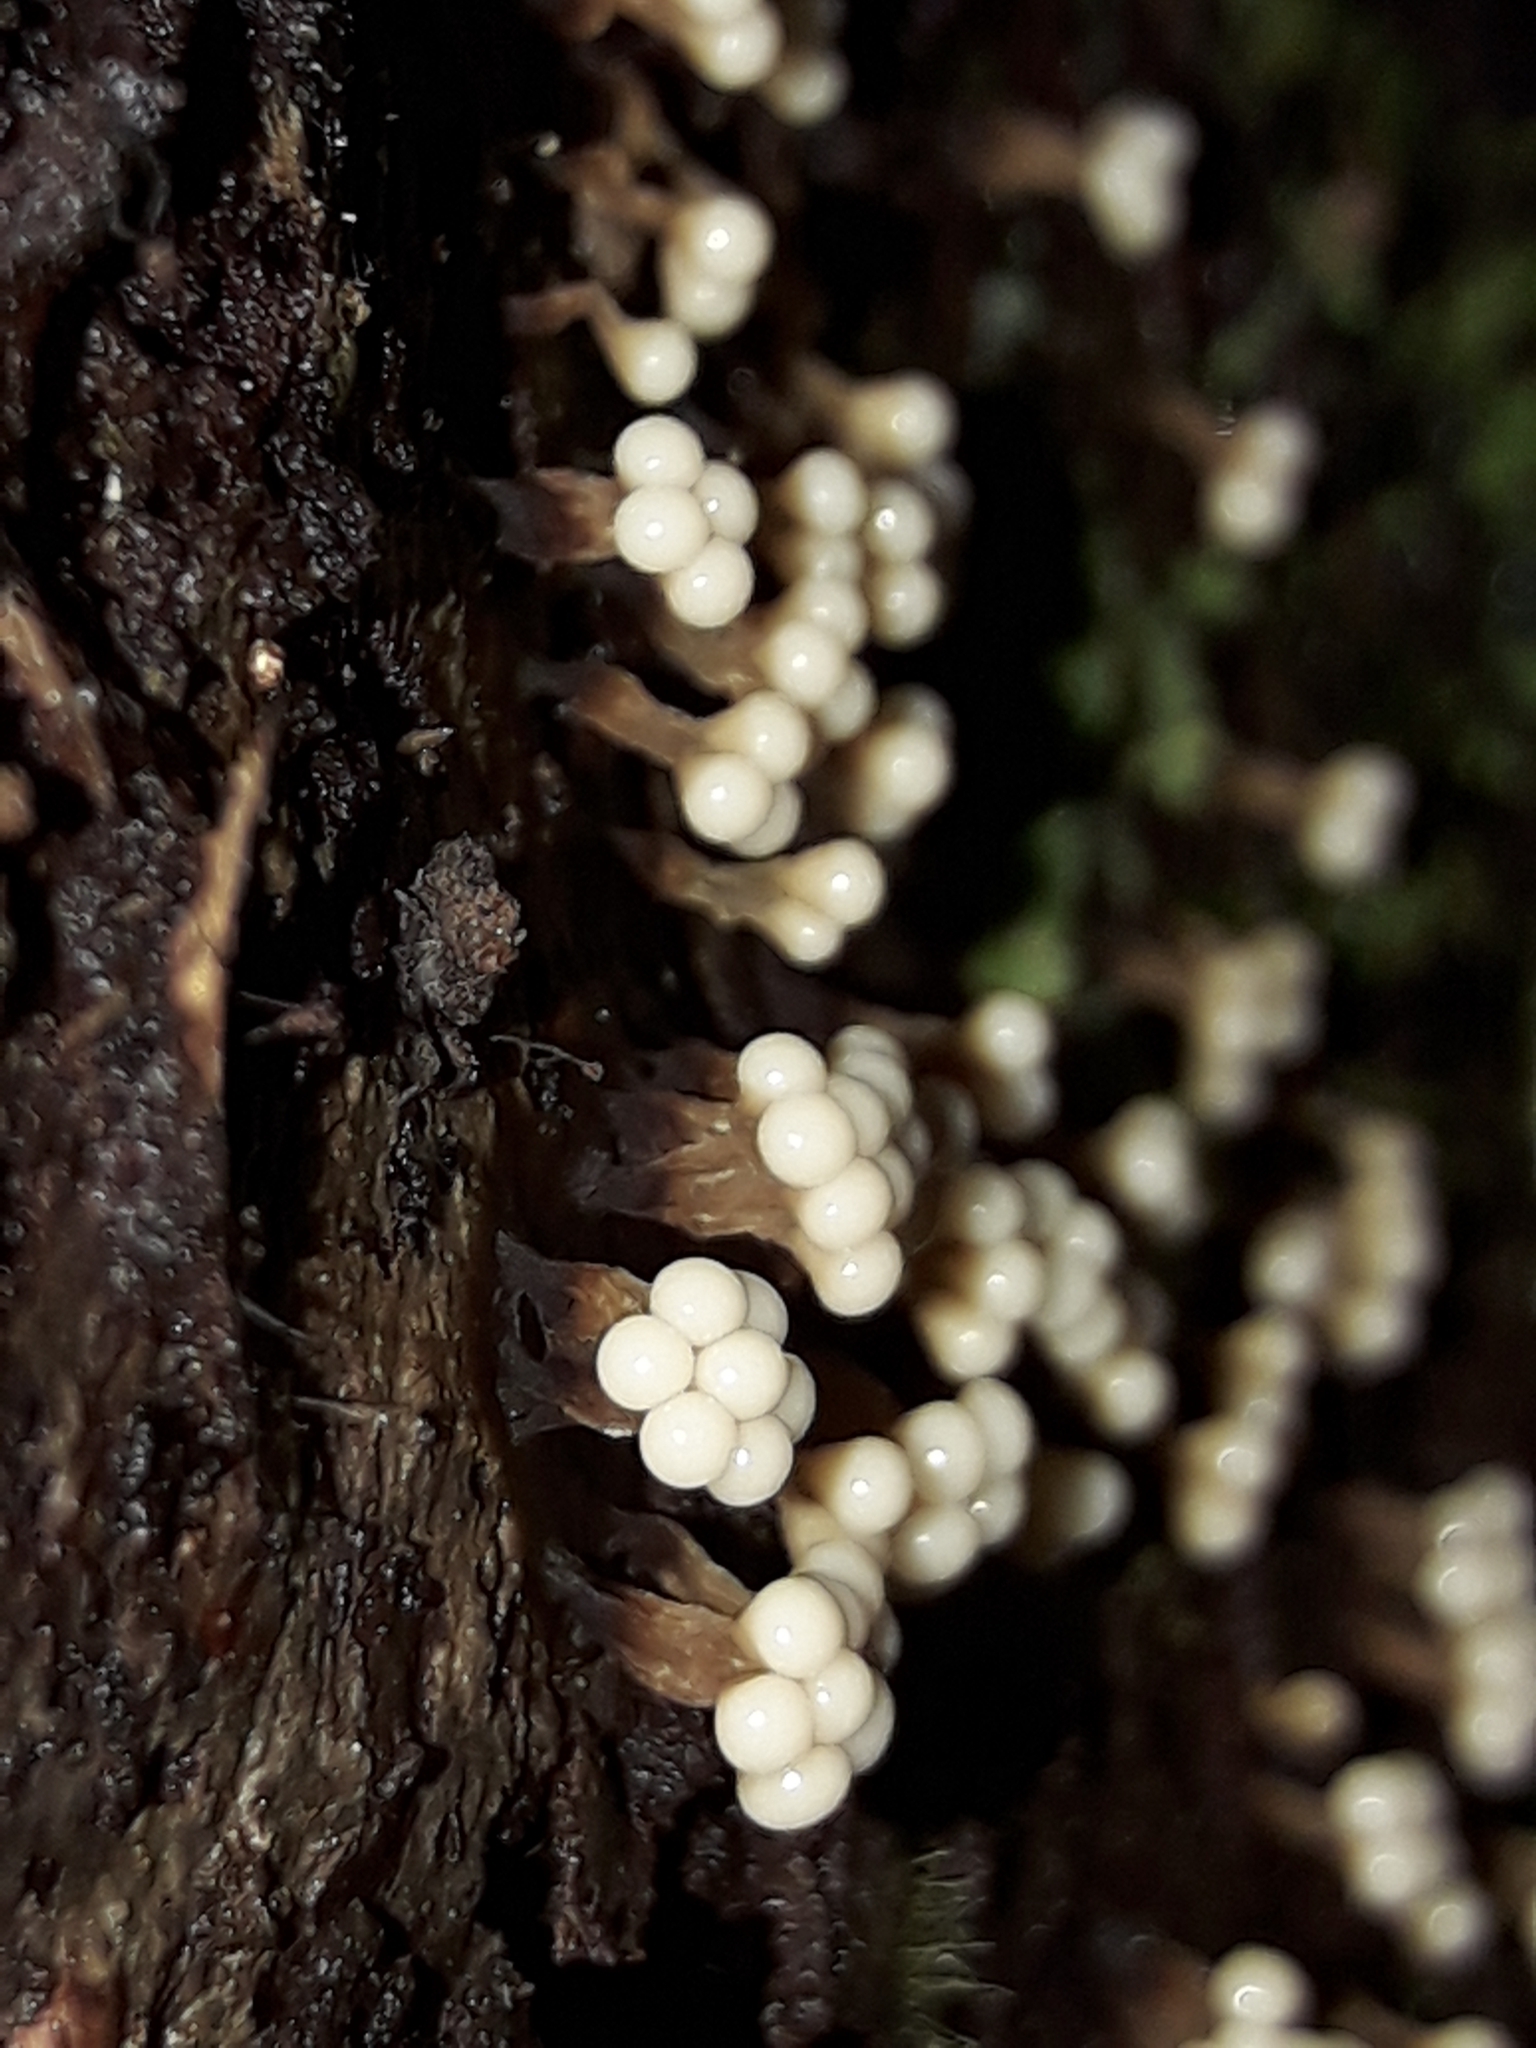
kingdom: Protozoa
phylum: Mycetozoa
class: Myxomycetes
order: Trichiales
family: Trichiaceae
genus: Oligonema
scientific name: Oligonema verrucosum
